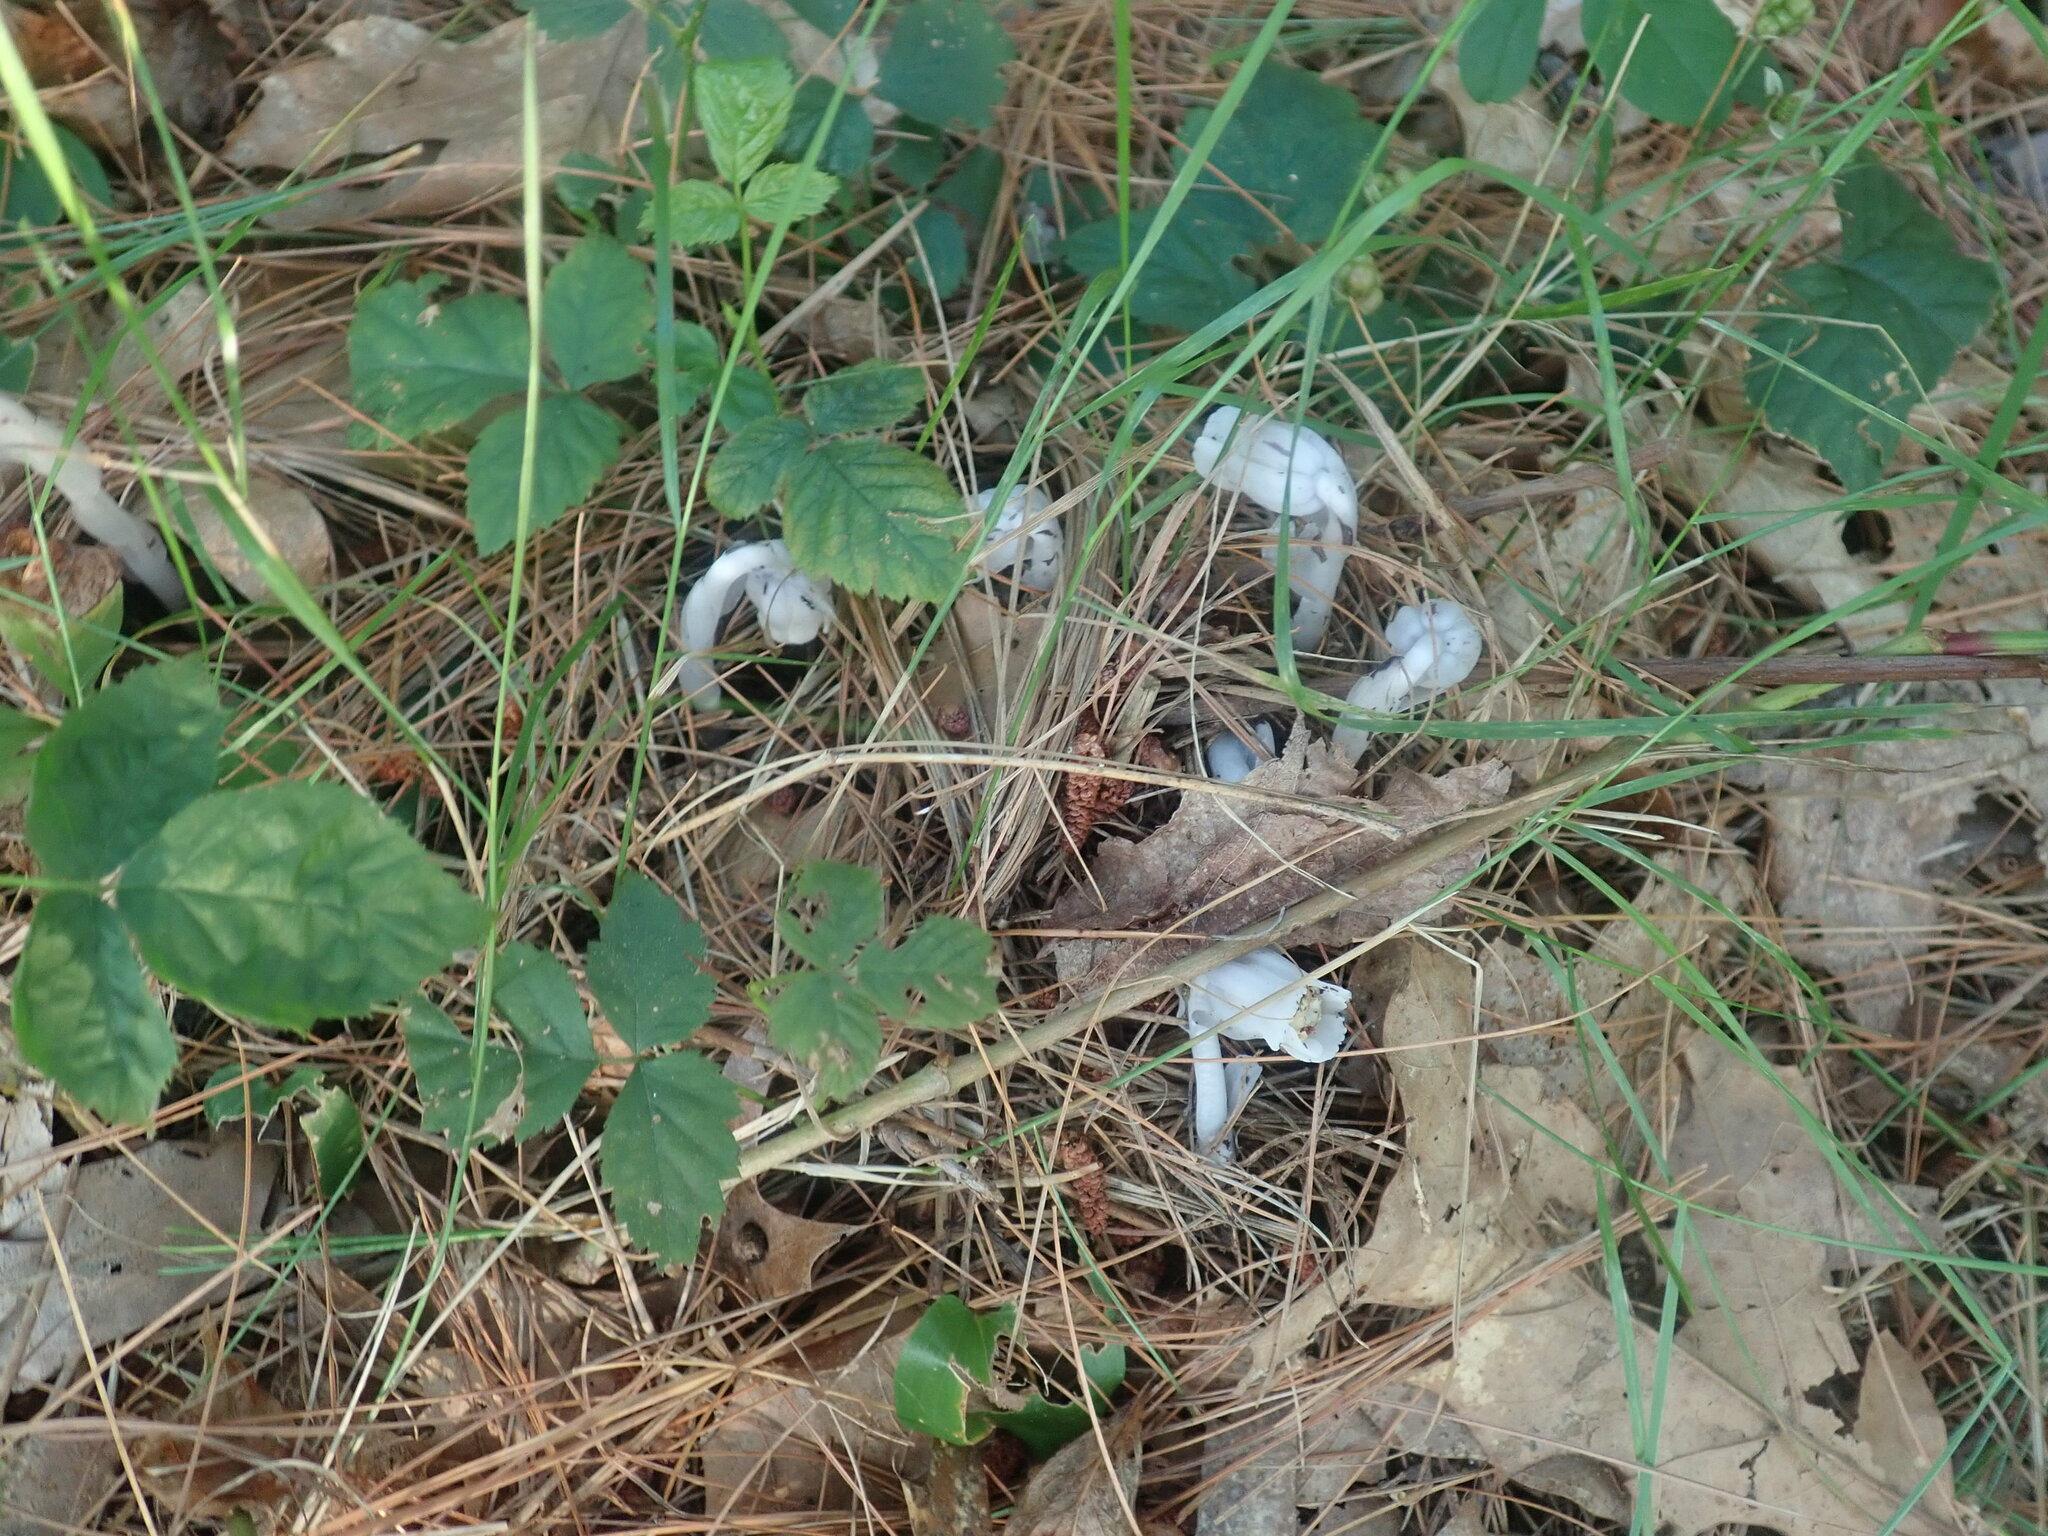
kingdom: Plantae
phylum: Tracheophyta
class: Magnoliopsida
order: Ericales
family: Ericaceae
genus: Monotropa
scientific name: Monotropa uniflora
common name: Convulsion root
